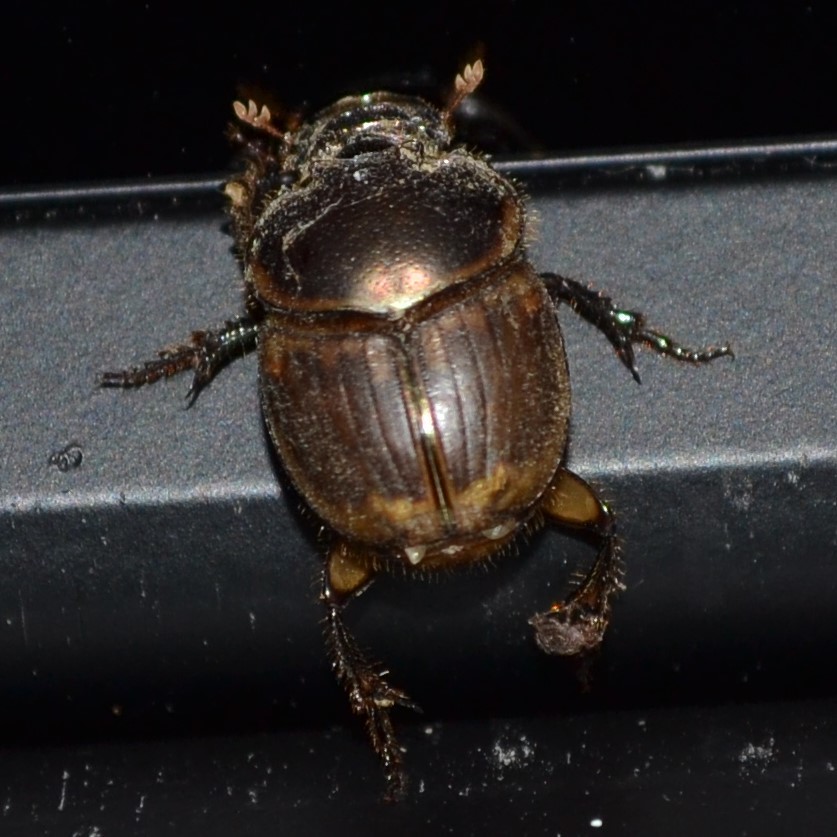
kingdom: Animalia
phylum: Arthropoda
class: Insecta
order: Coleoptera
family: Scarabaeidae
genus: Digitonthophagus
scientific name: Digitonthophagus gazella
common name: Brown dung beetle
